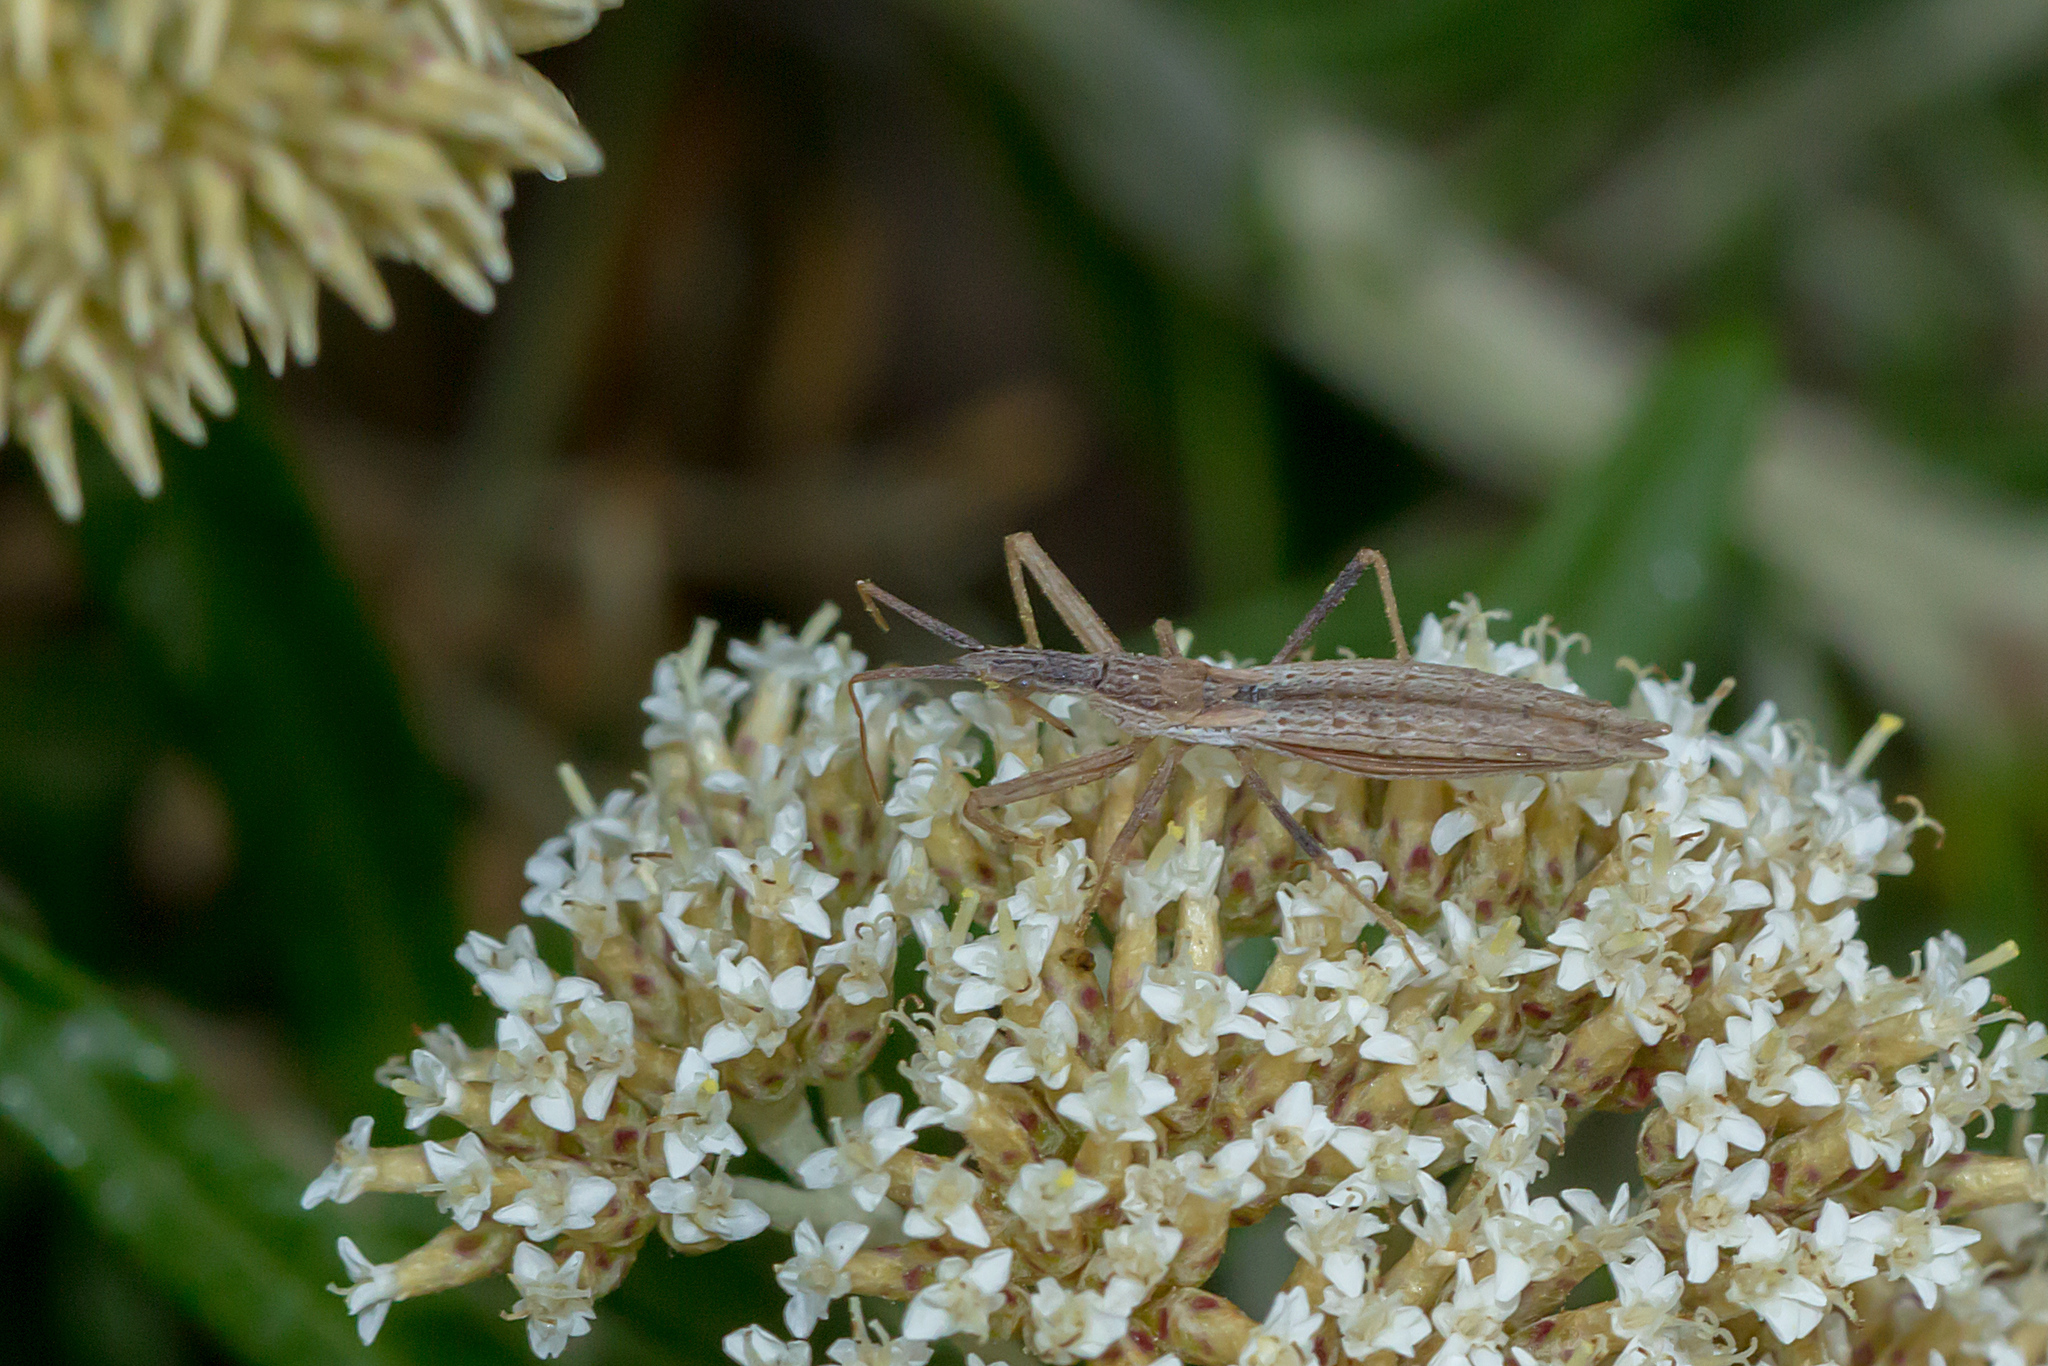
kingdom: Animalia
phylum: Arthropoda
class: Insecta
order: Hemiptera
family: Reduviidae
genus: Dicrotelus
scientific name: Dicrotelus prolixus
